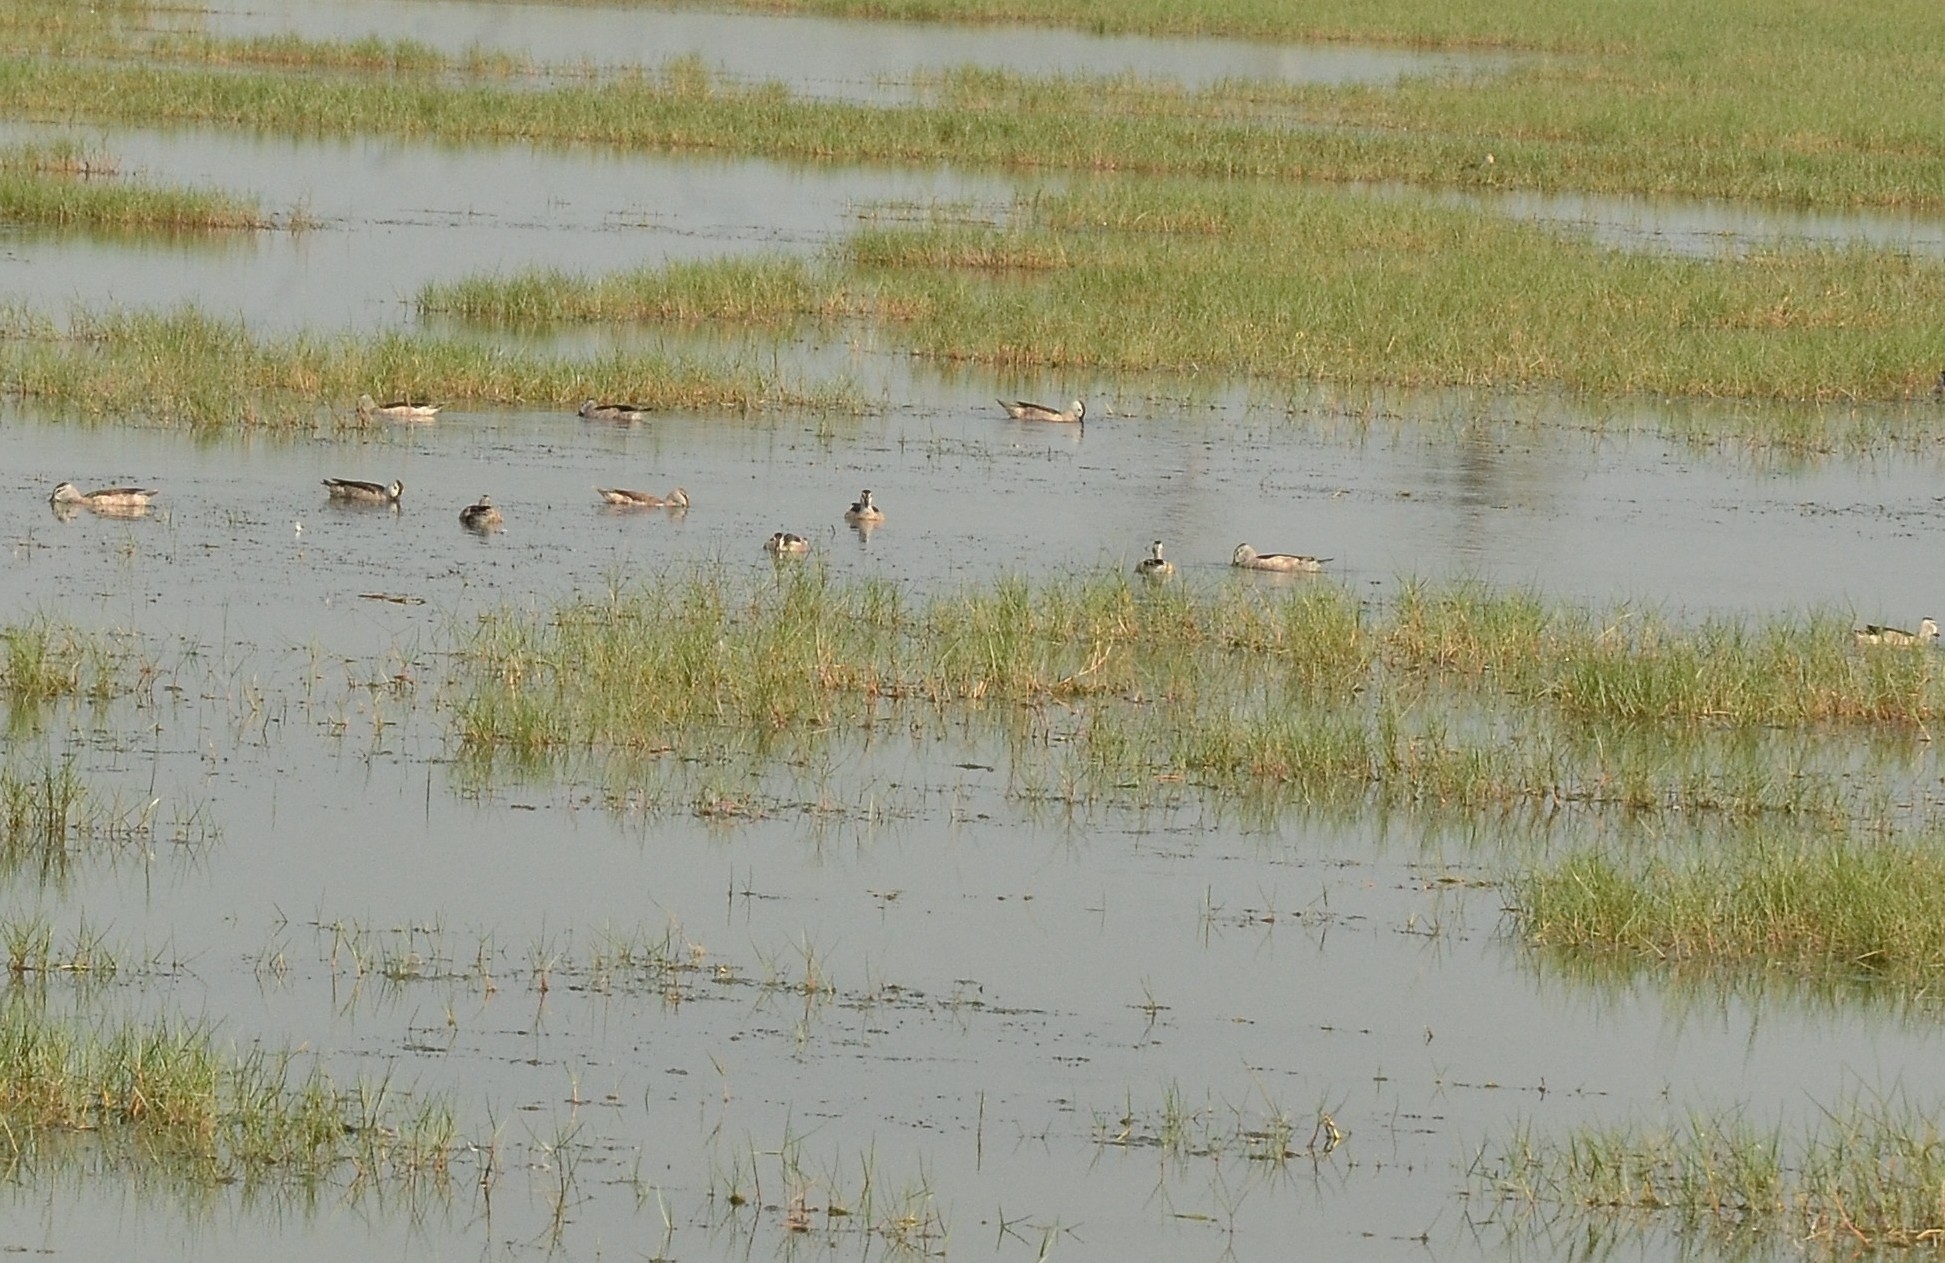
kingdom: Animalia
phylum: Chordata
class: Aves
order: Anseriformes
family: Anatidae
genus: Nettapus
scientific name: Nettapus coromandelianus
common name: Cotton pygmy-goose
